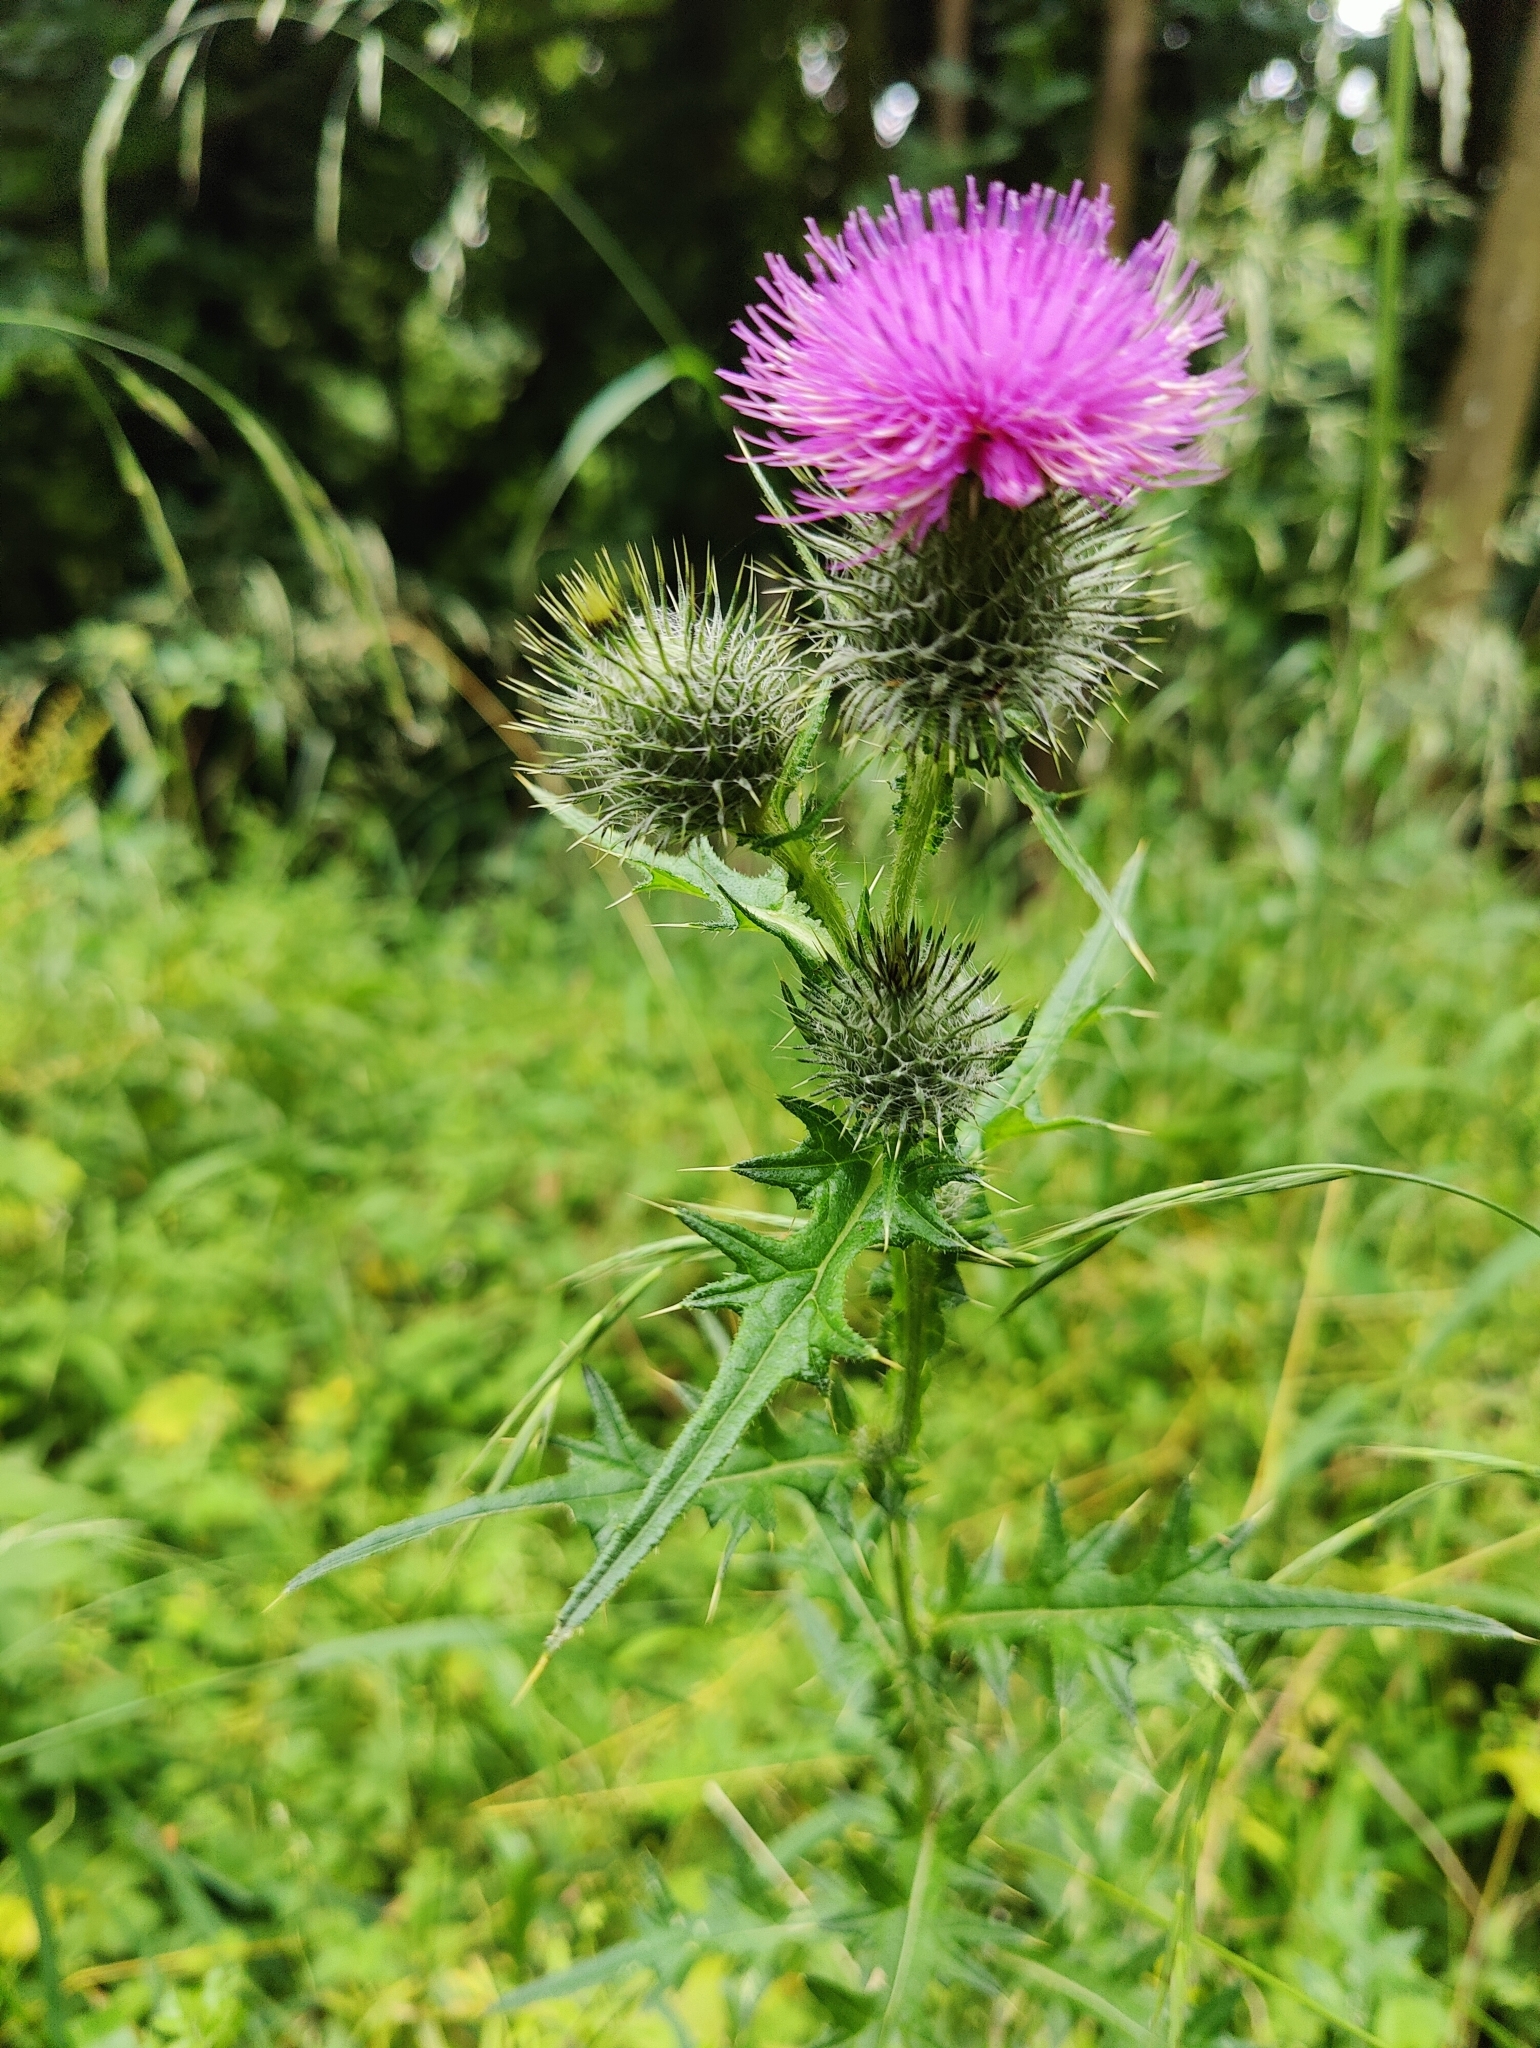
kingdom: Plantae
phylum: Tracheophyta
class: Magnoliopsida
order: Asterales
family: Asteraceae
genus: Cirsium
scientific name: Cirsium vulgare
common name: Bull thistle
